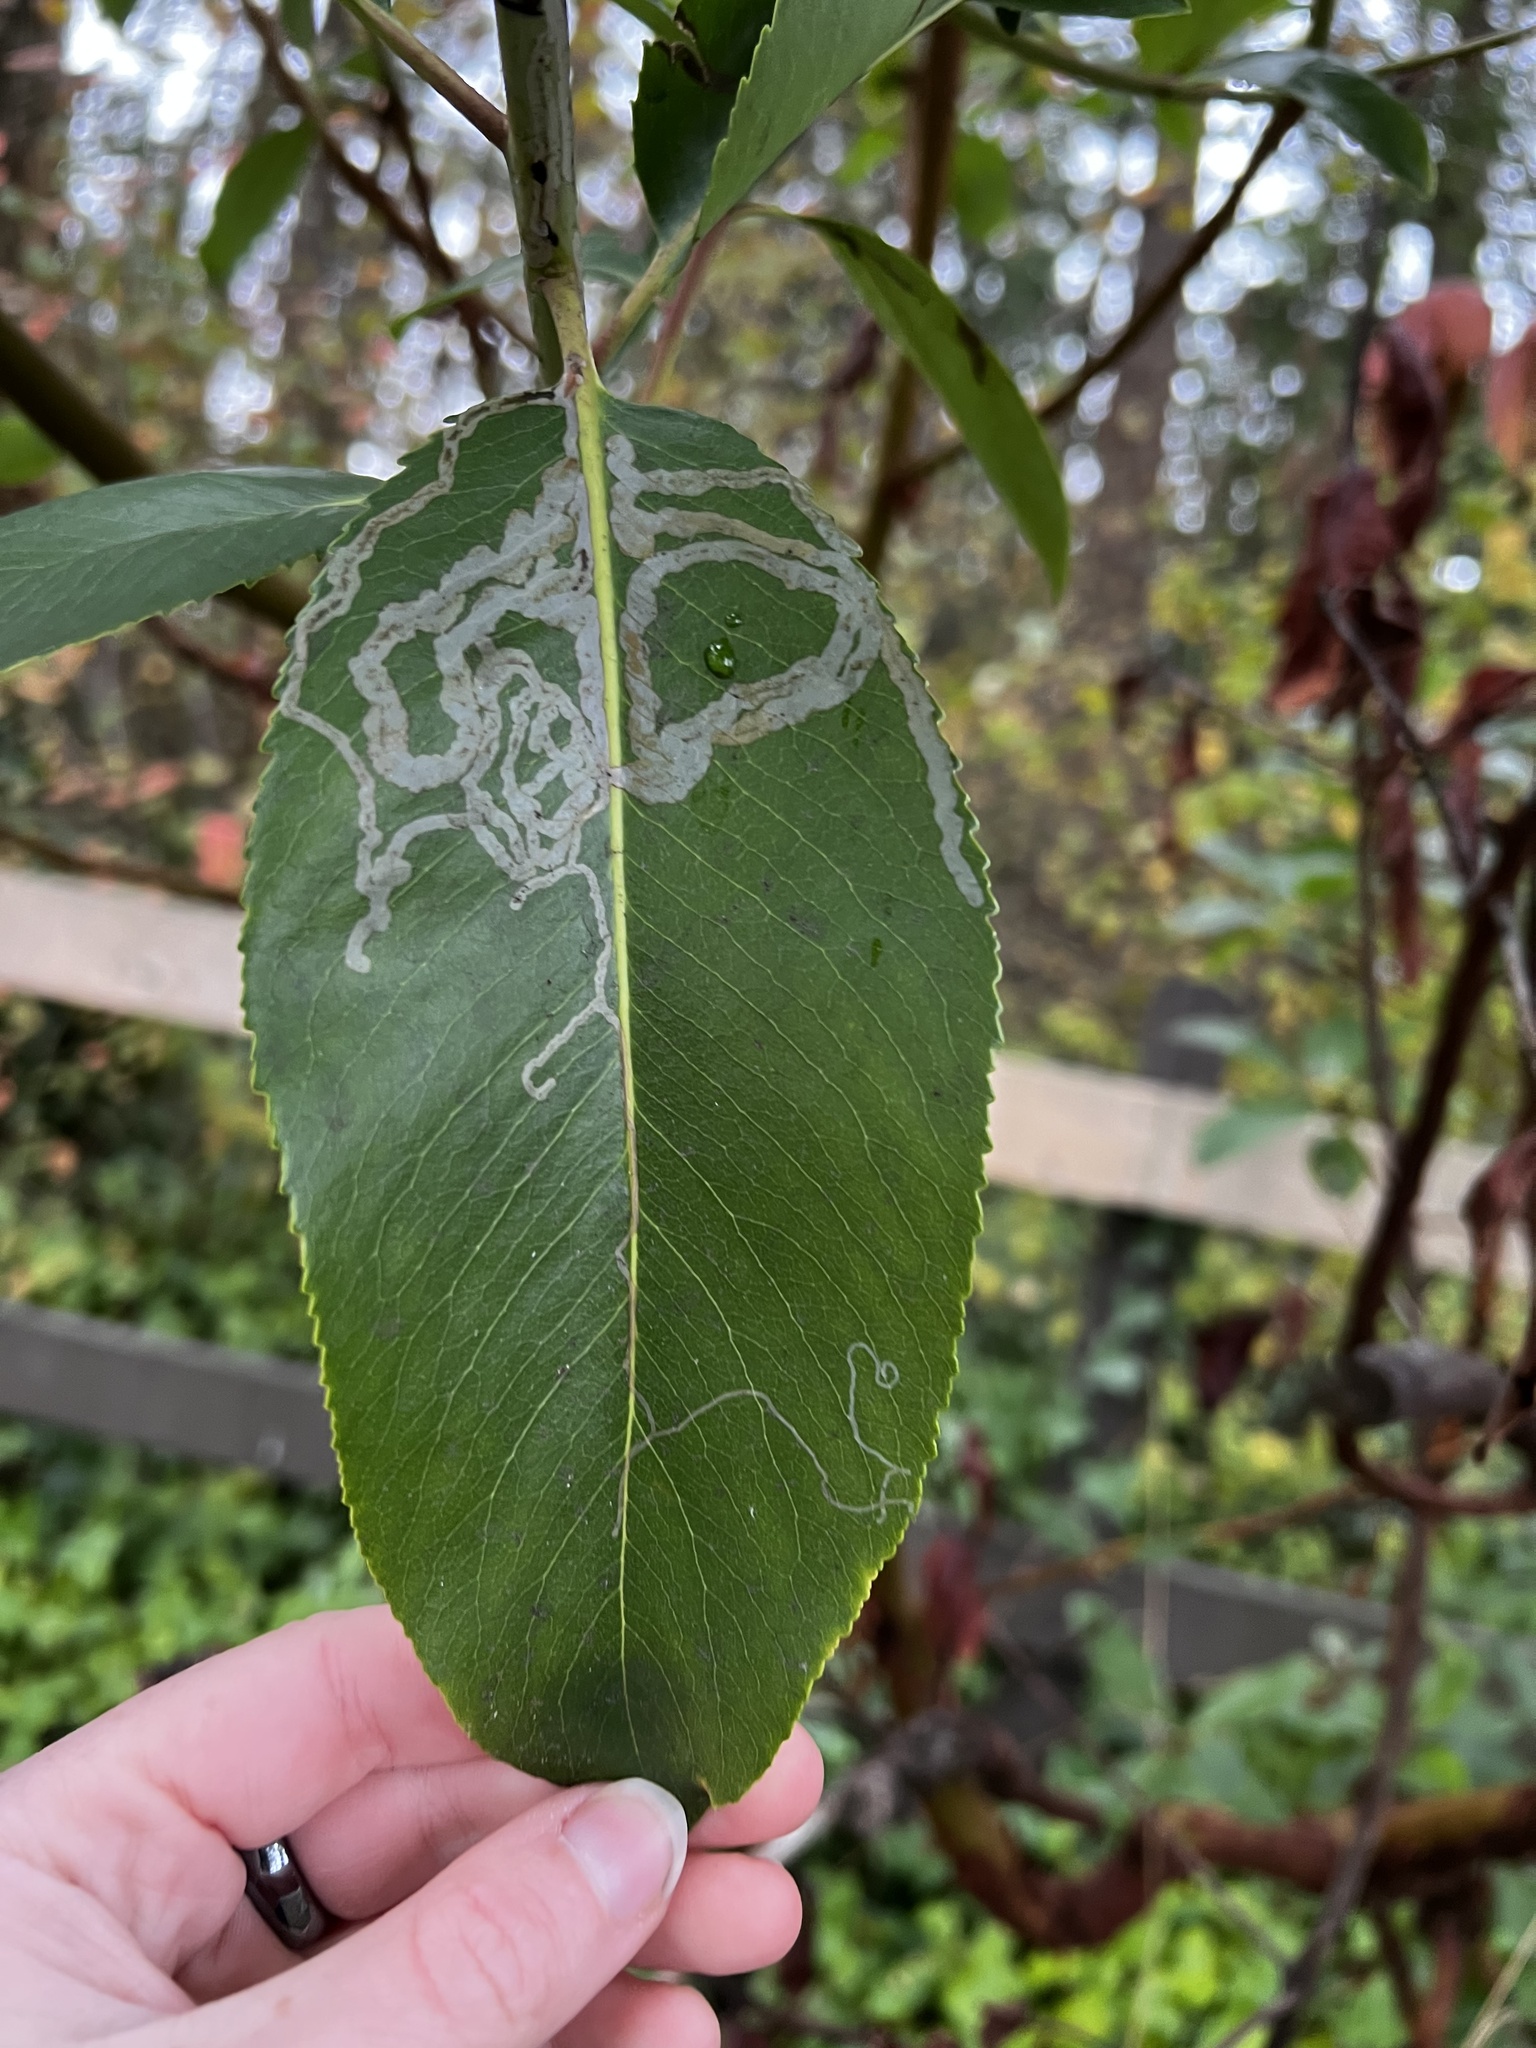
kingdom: Animalia
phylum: Arthropoda
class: Insecta
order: Lepidoptera
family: Gracillariidae
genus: Marmara
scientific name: Marmara arbutiella
